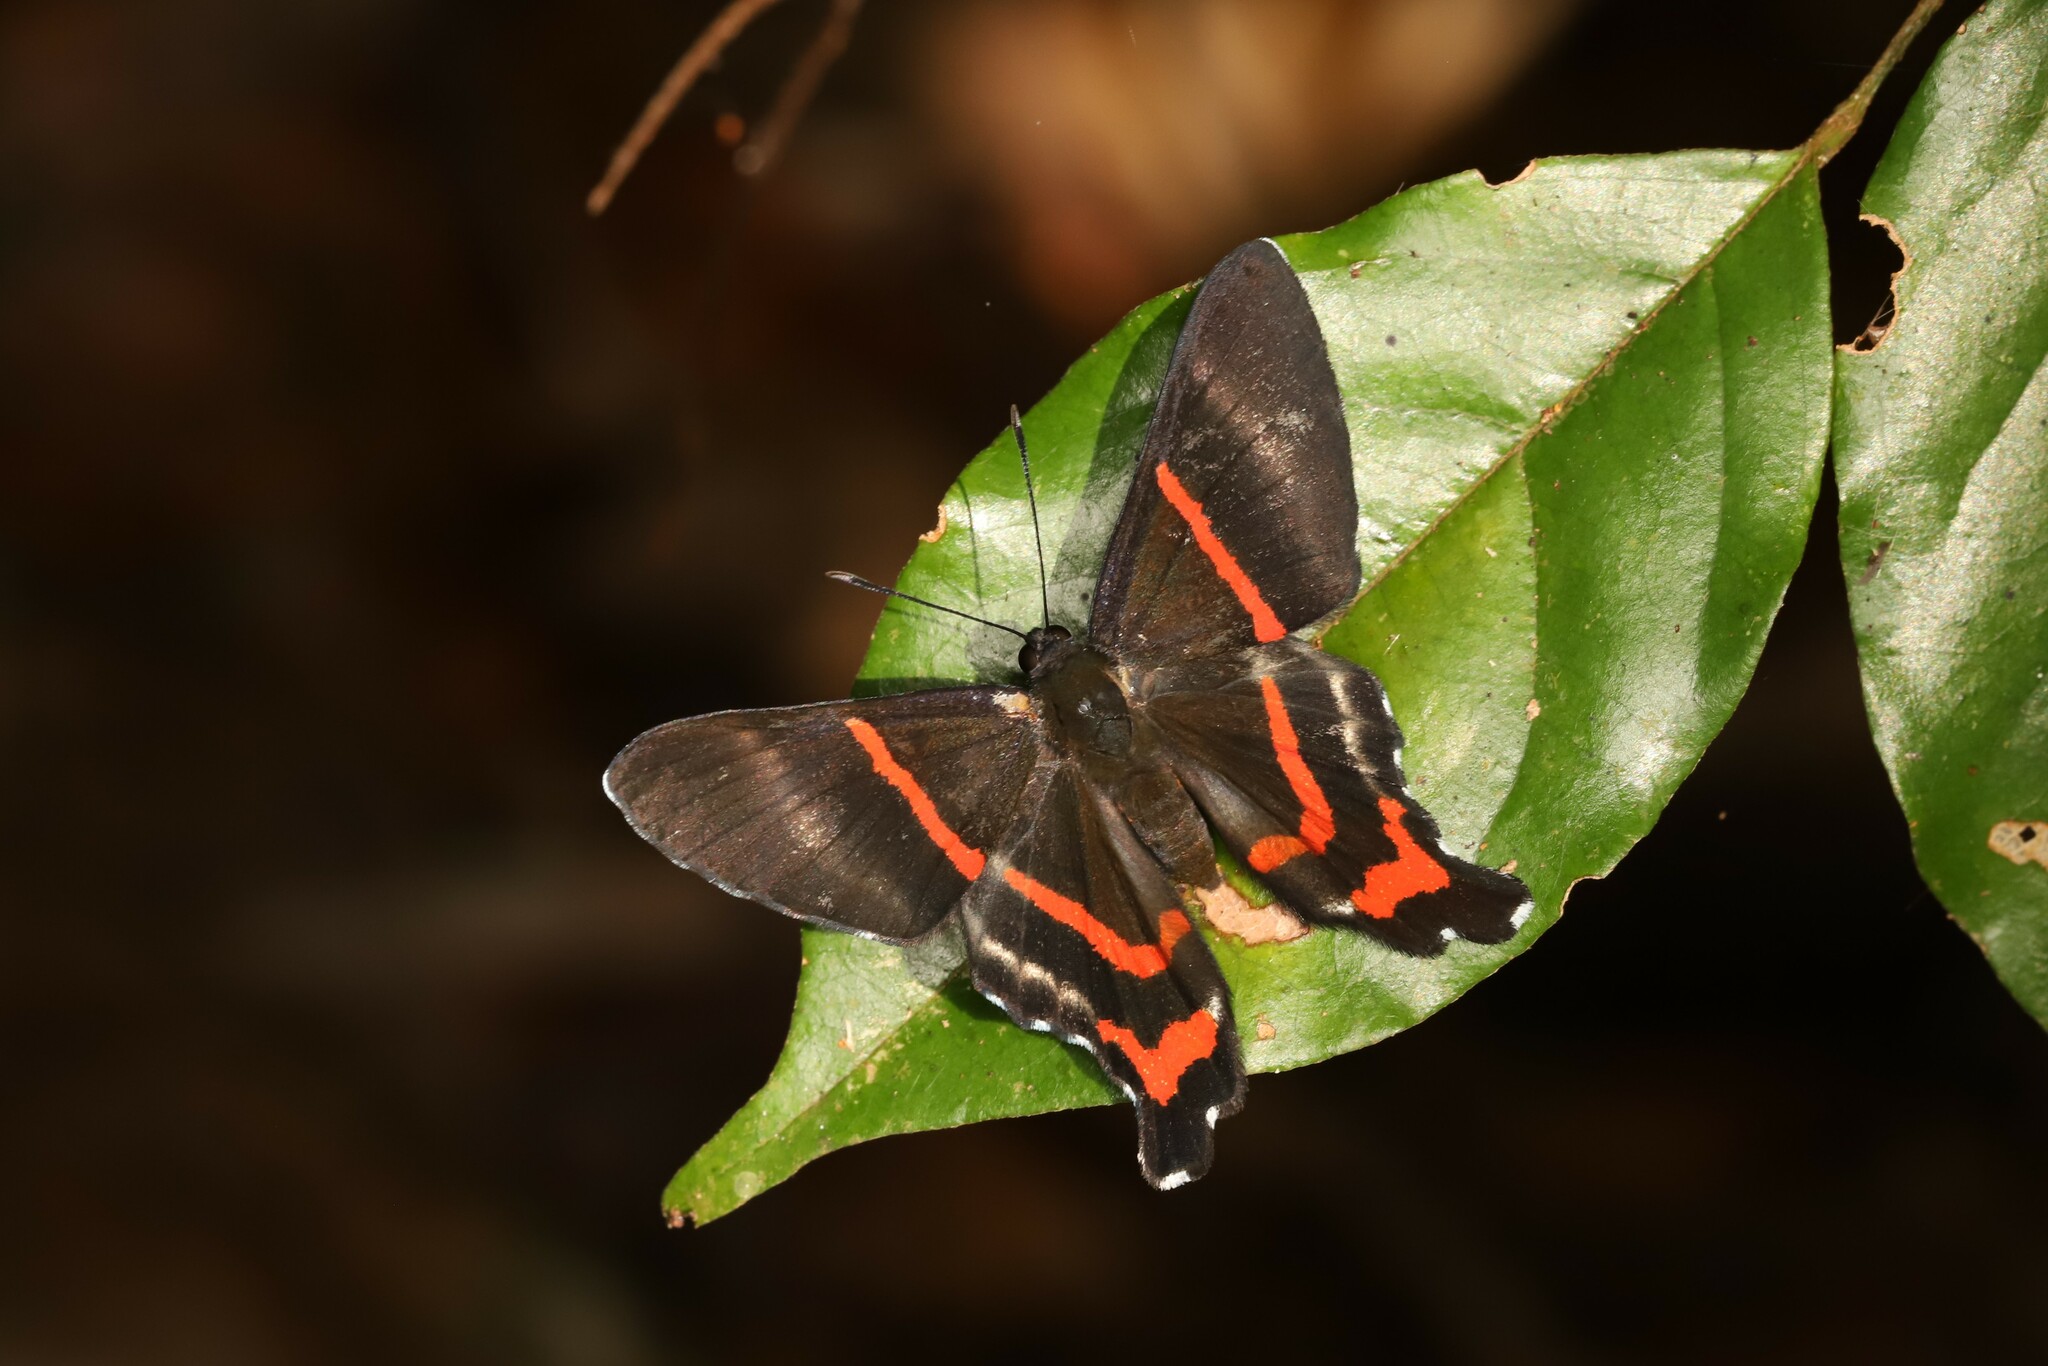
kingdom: Animalia
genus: Ancyluris
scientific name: Ancyluris aulestes
